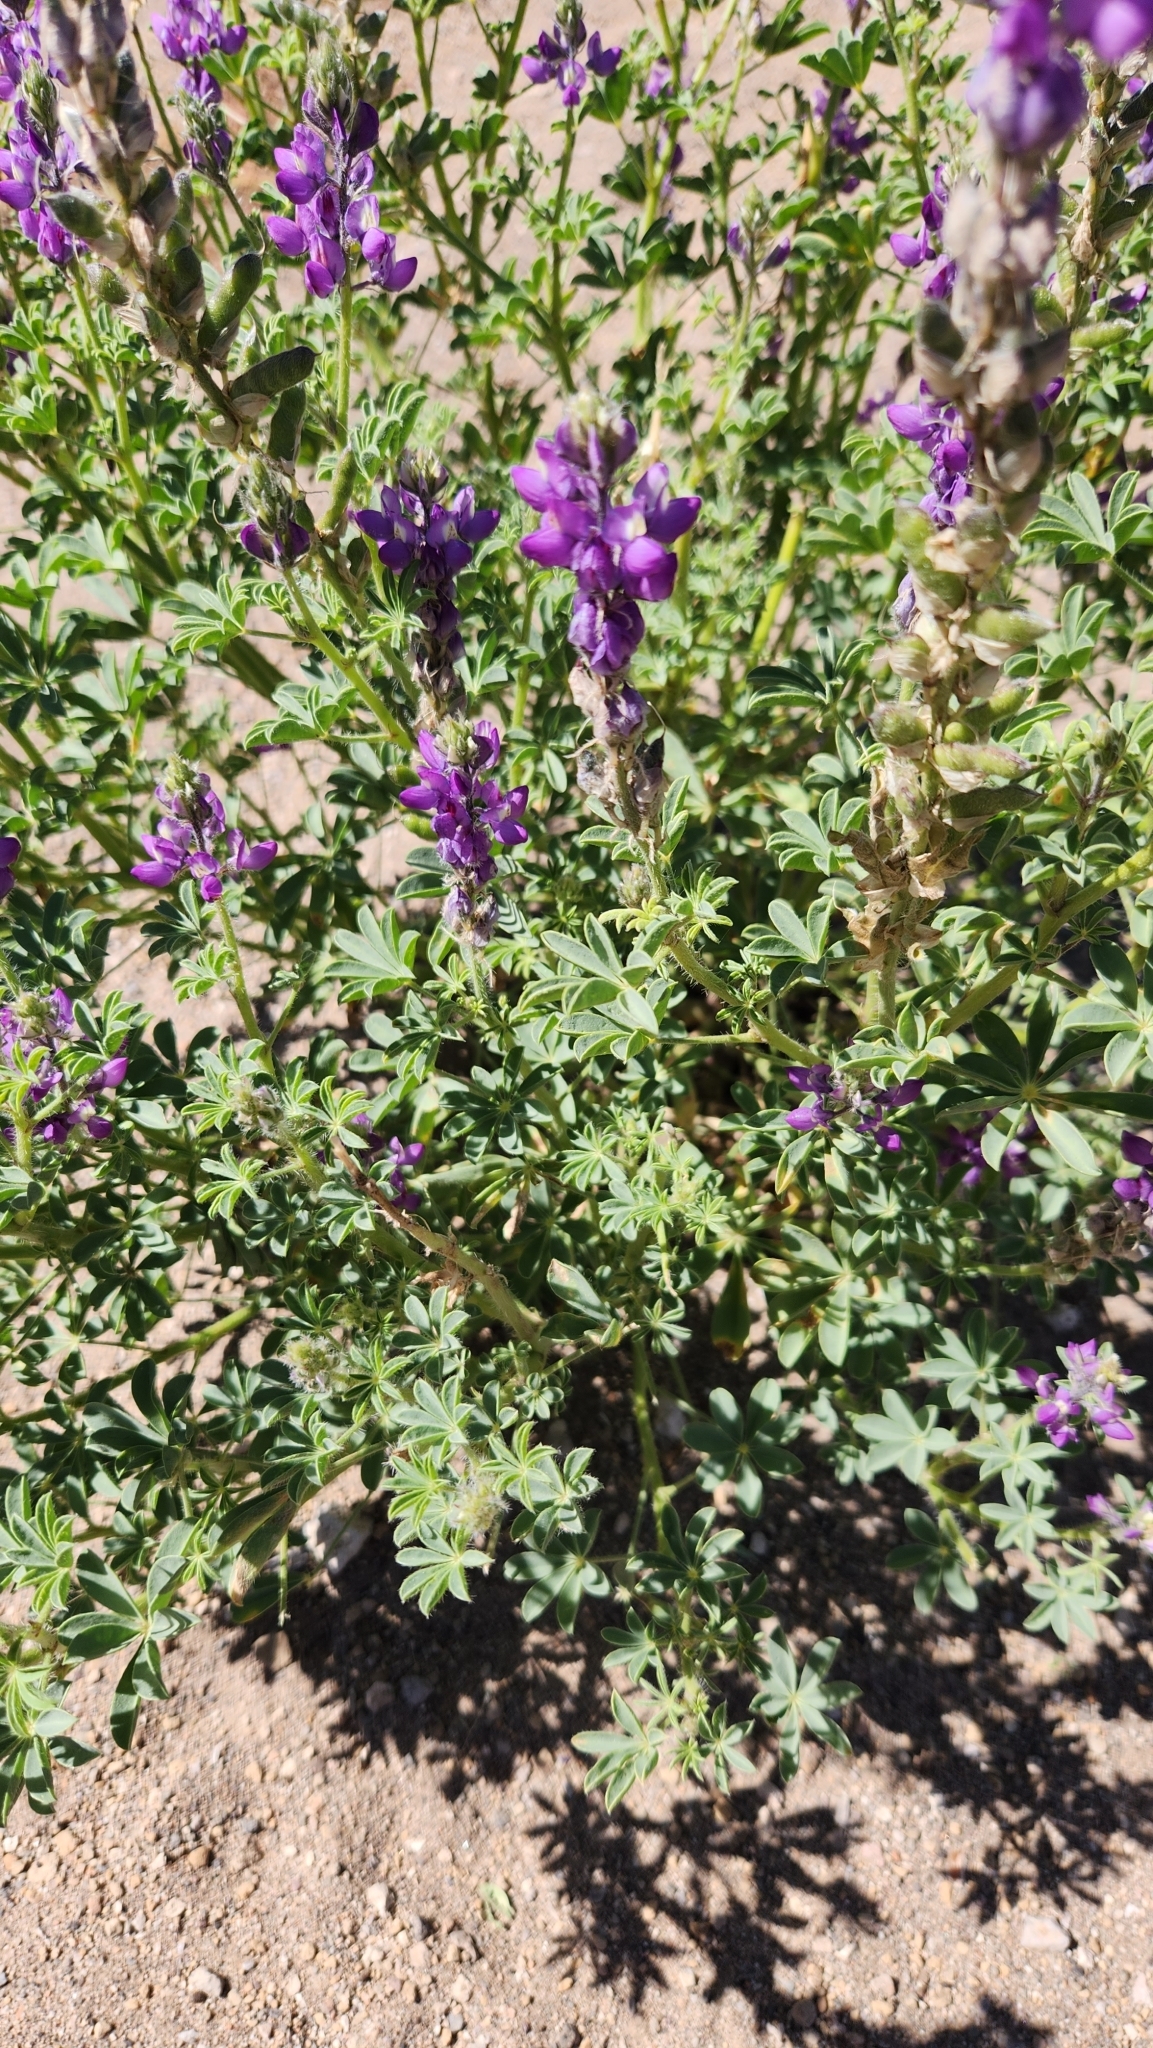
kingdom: Plantae
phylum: Tracheophyta
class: Magnoliopsida
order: Fabales
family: Fabaceae
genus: Lupinus
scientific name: Lupinus arizonicus
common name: Arizona lupine
